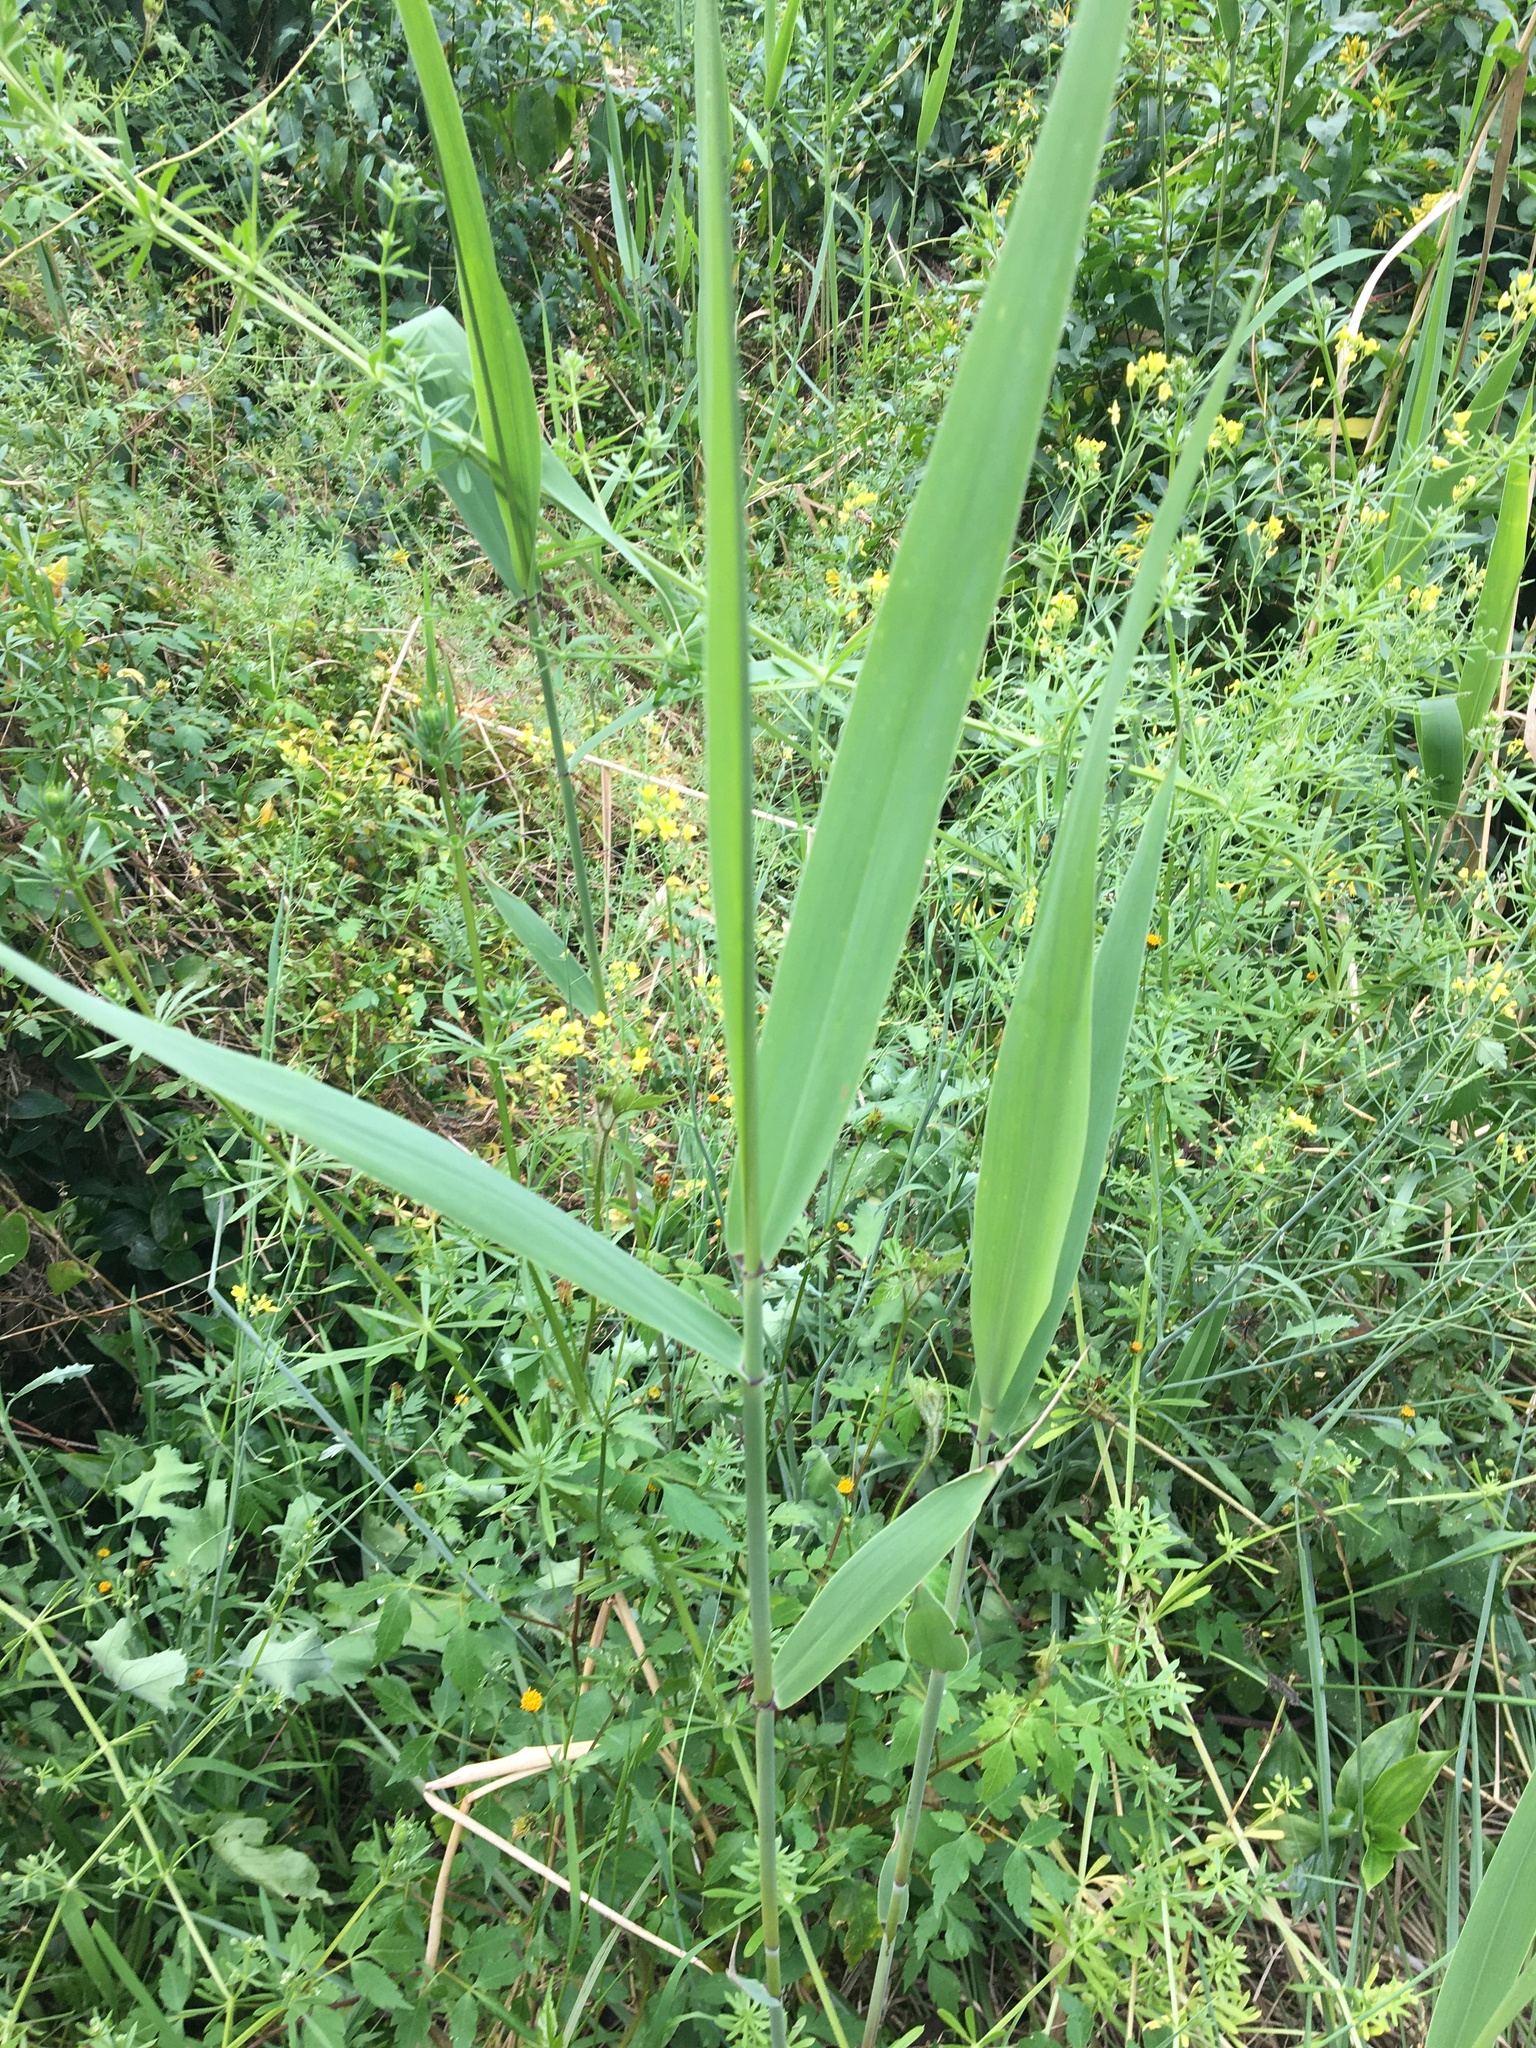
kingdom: Plantae
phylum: Tracheophyta
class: Liliopsida
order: Poales
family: Poaceae
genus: Phragmites
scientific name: Phragmites australis
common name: Common reed
